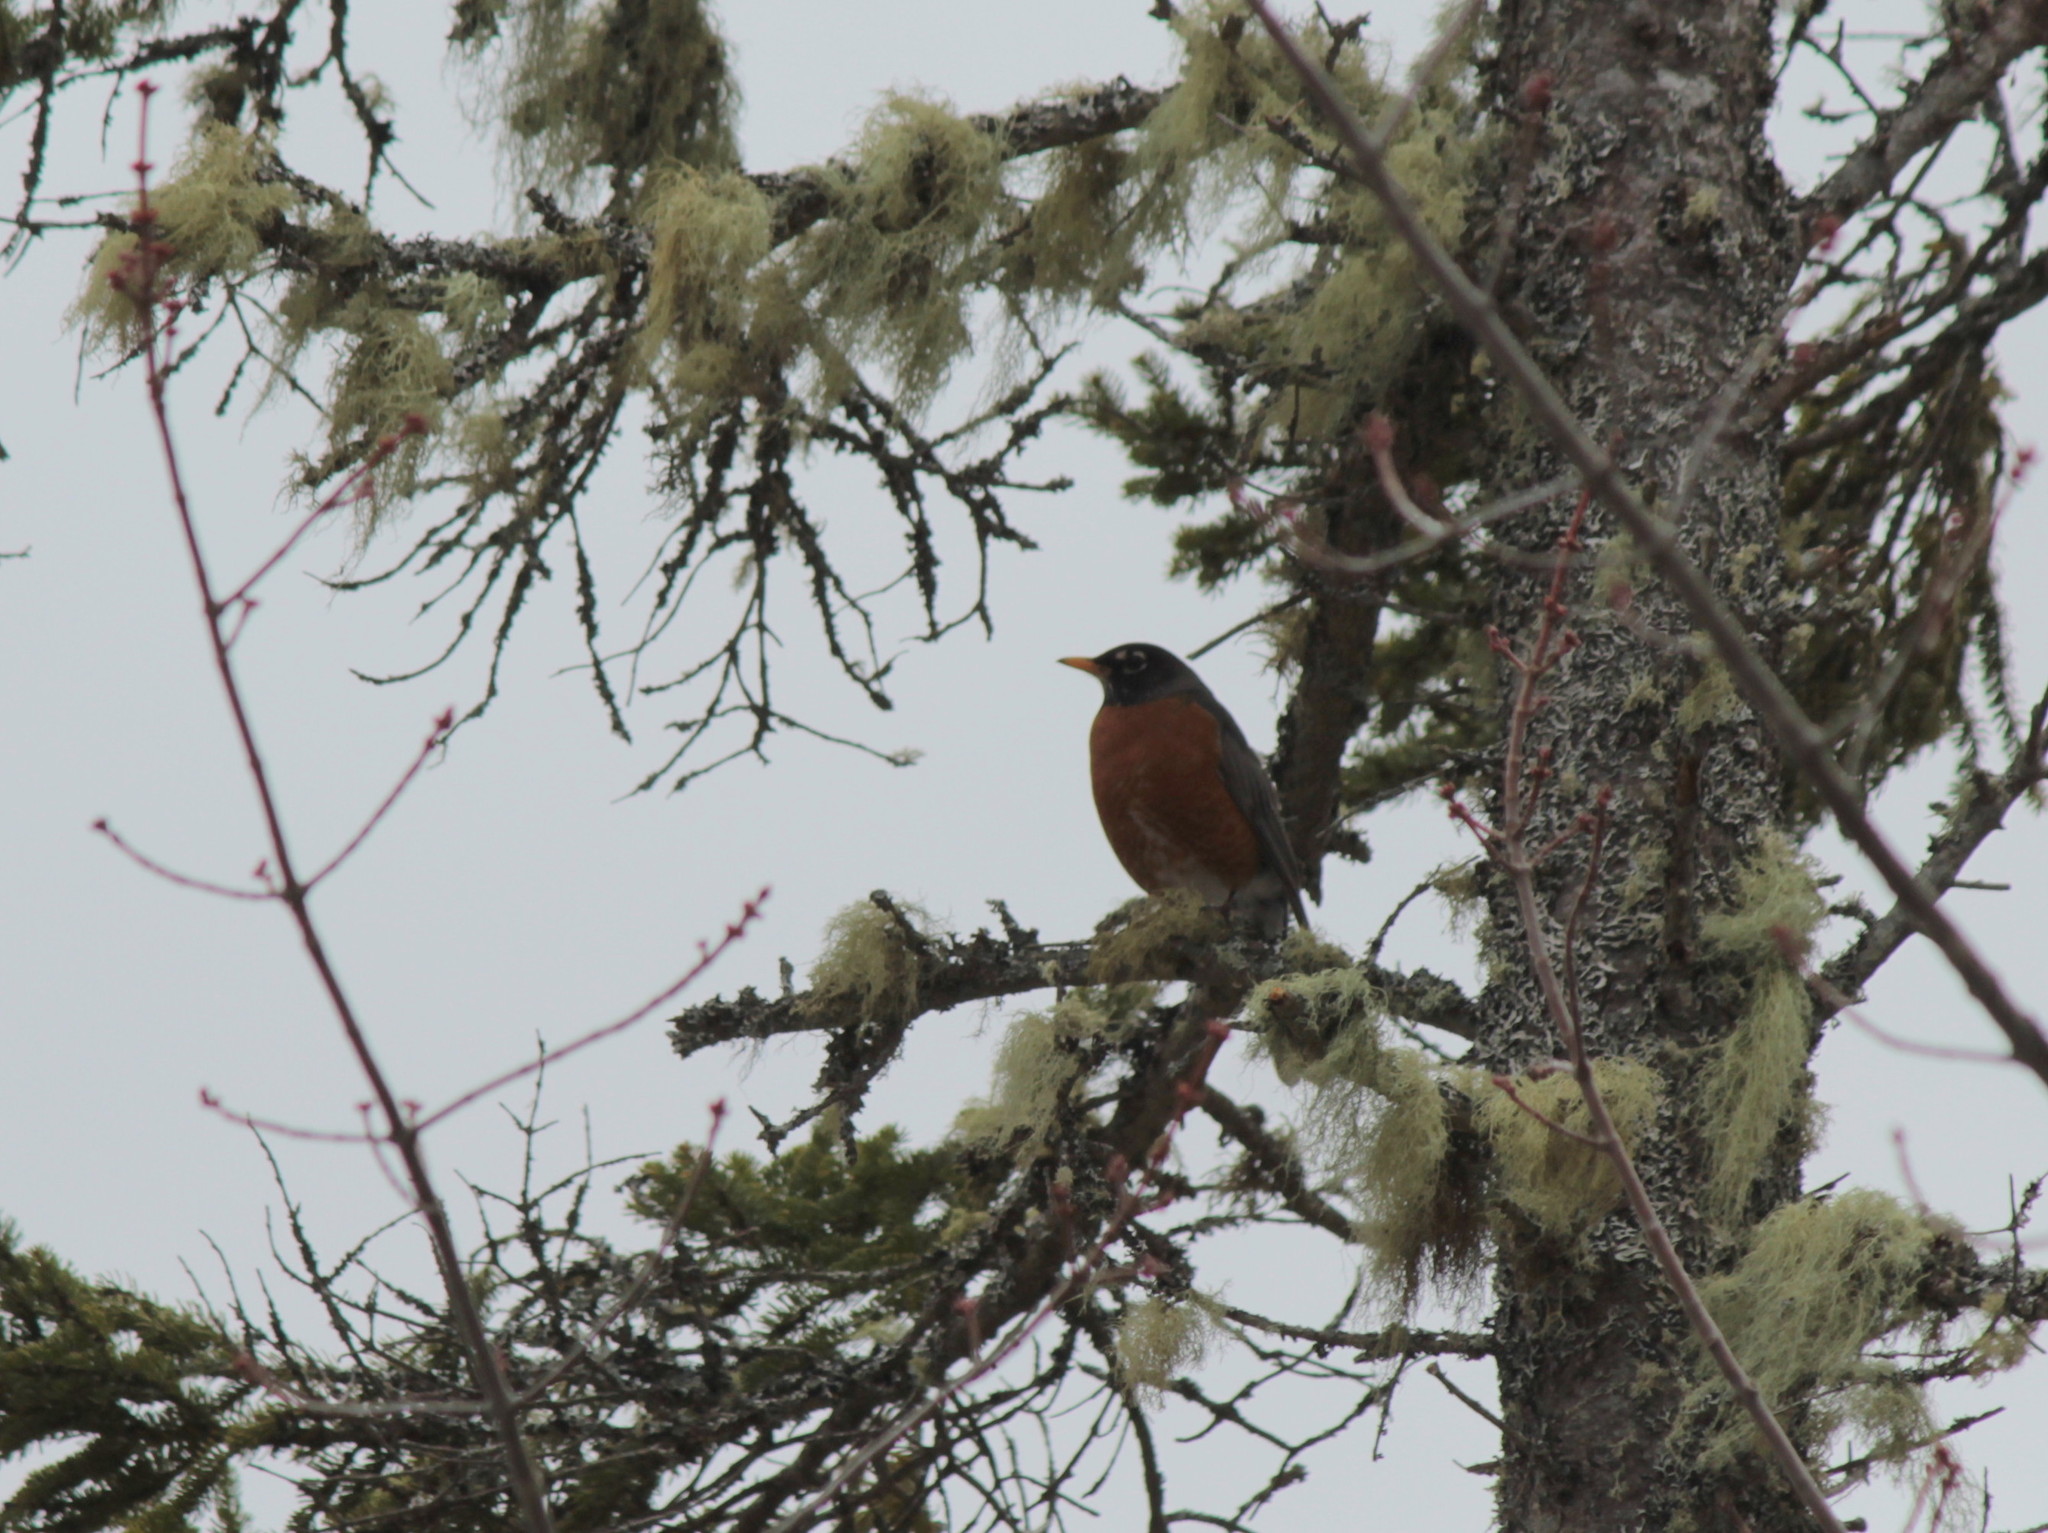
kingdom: Animalia
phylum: Chordata
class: Aves
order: Passeriformes
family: Turdidae
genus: Turdus
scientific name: Turdus migratorius
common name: American robin
